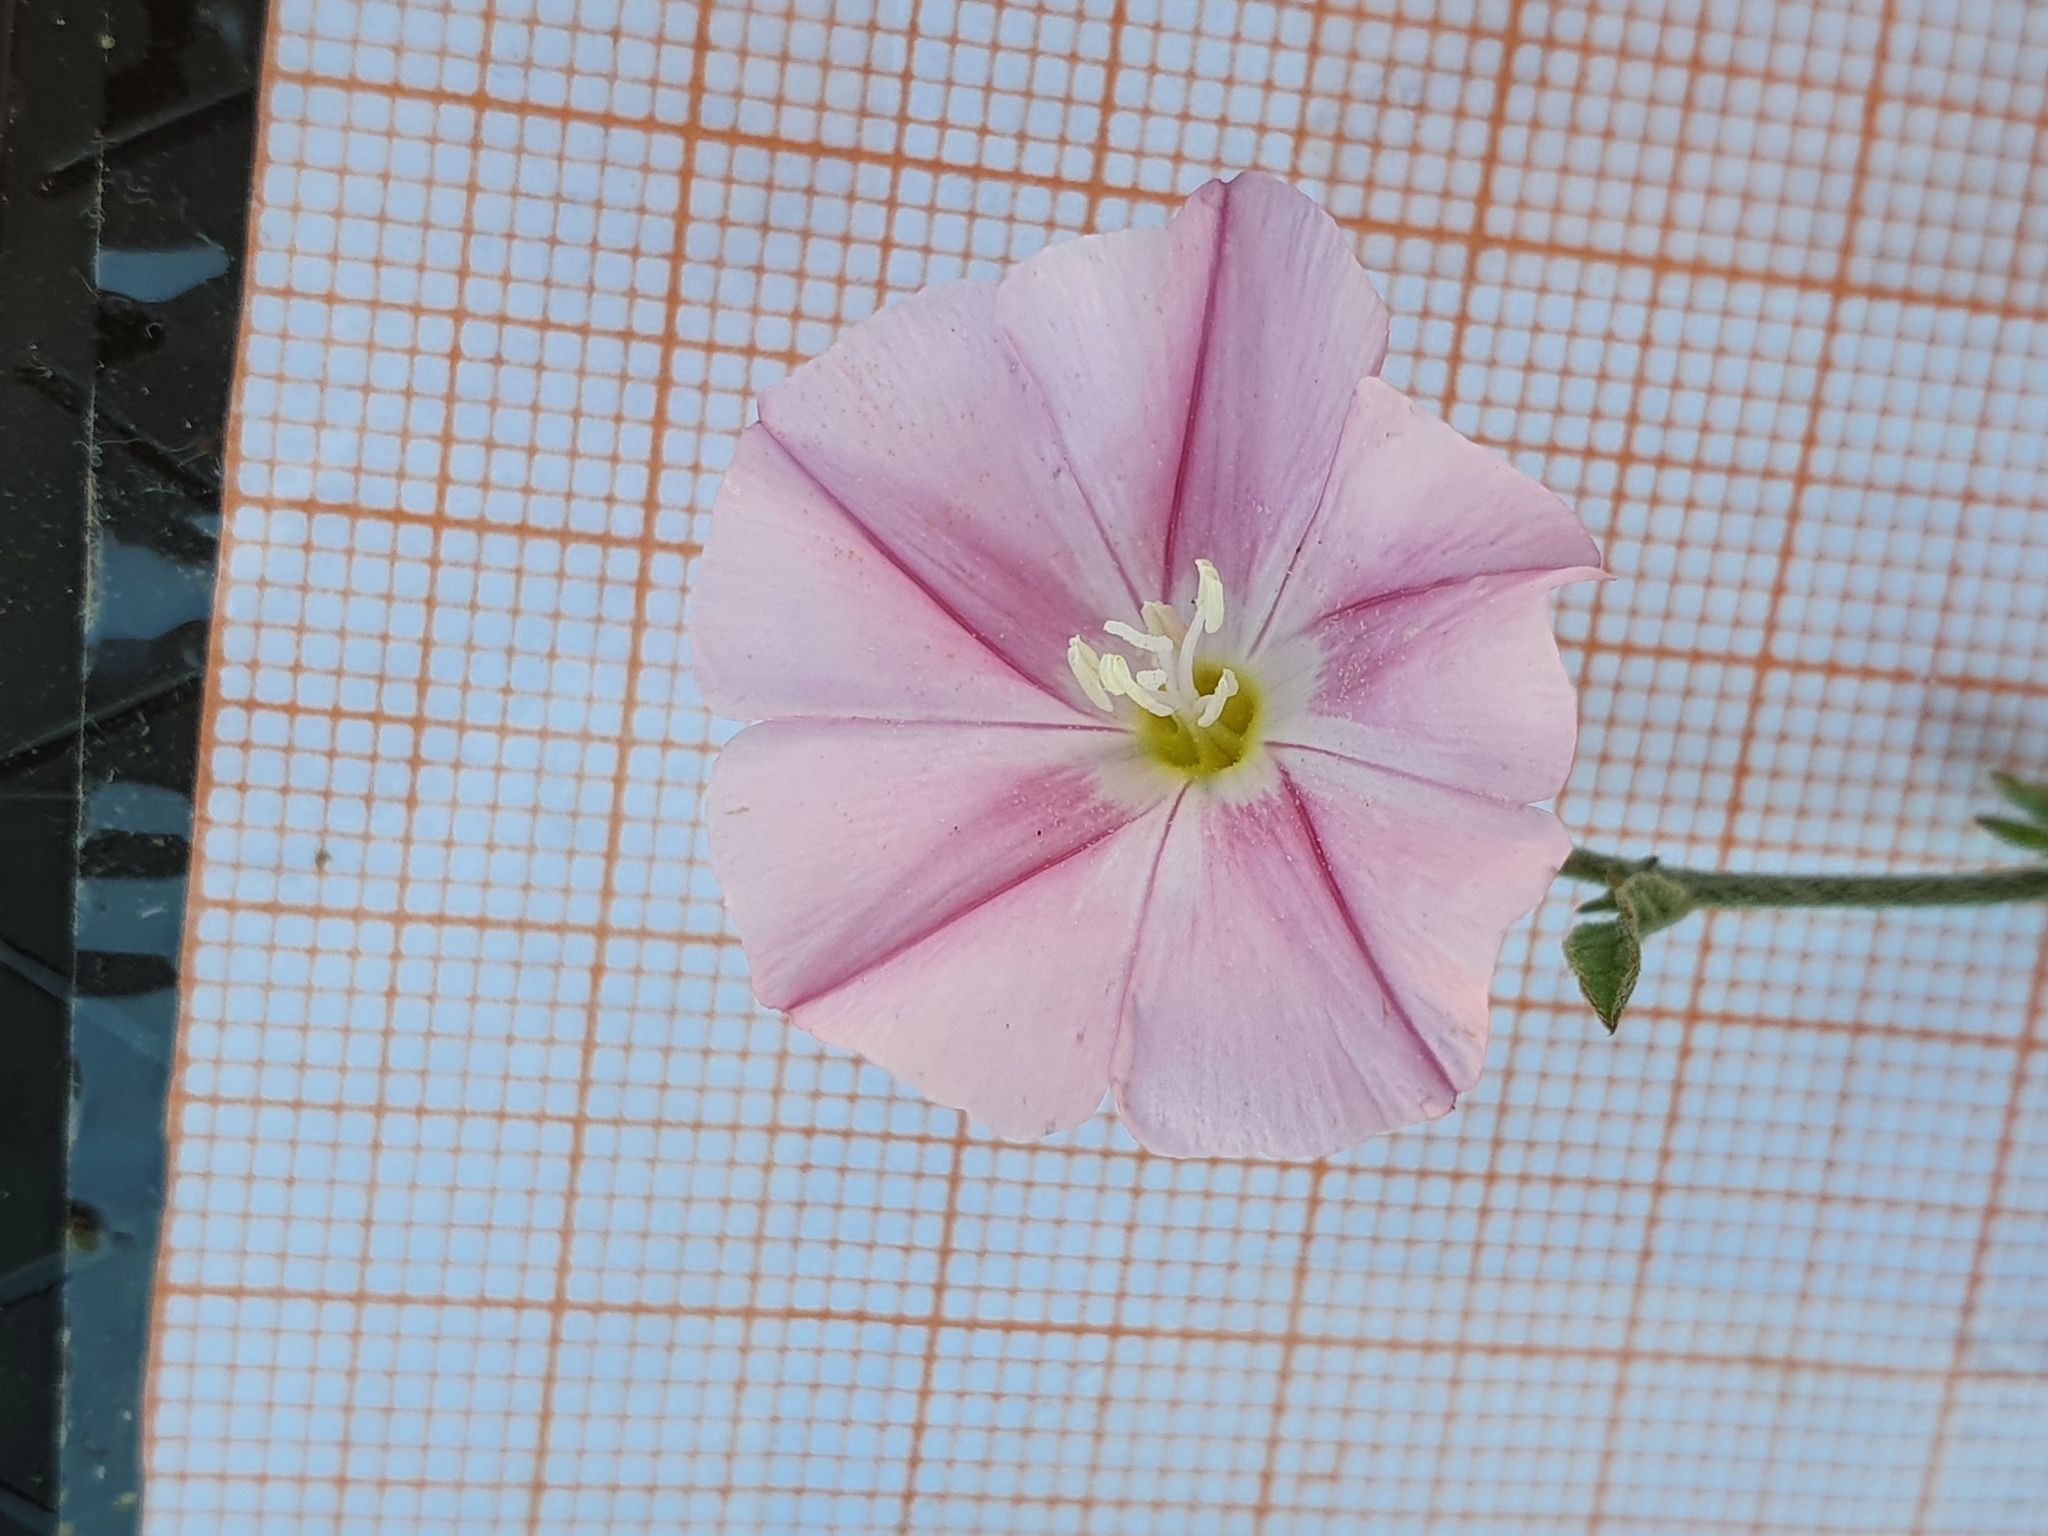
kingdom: Plantae
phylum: Tracheophyta
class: Magnoliopsida
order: Solanales
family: Convolvulaceae
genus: Convolvulus
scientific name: Convolvulus cantabrica
